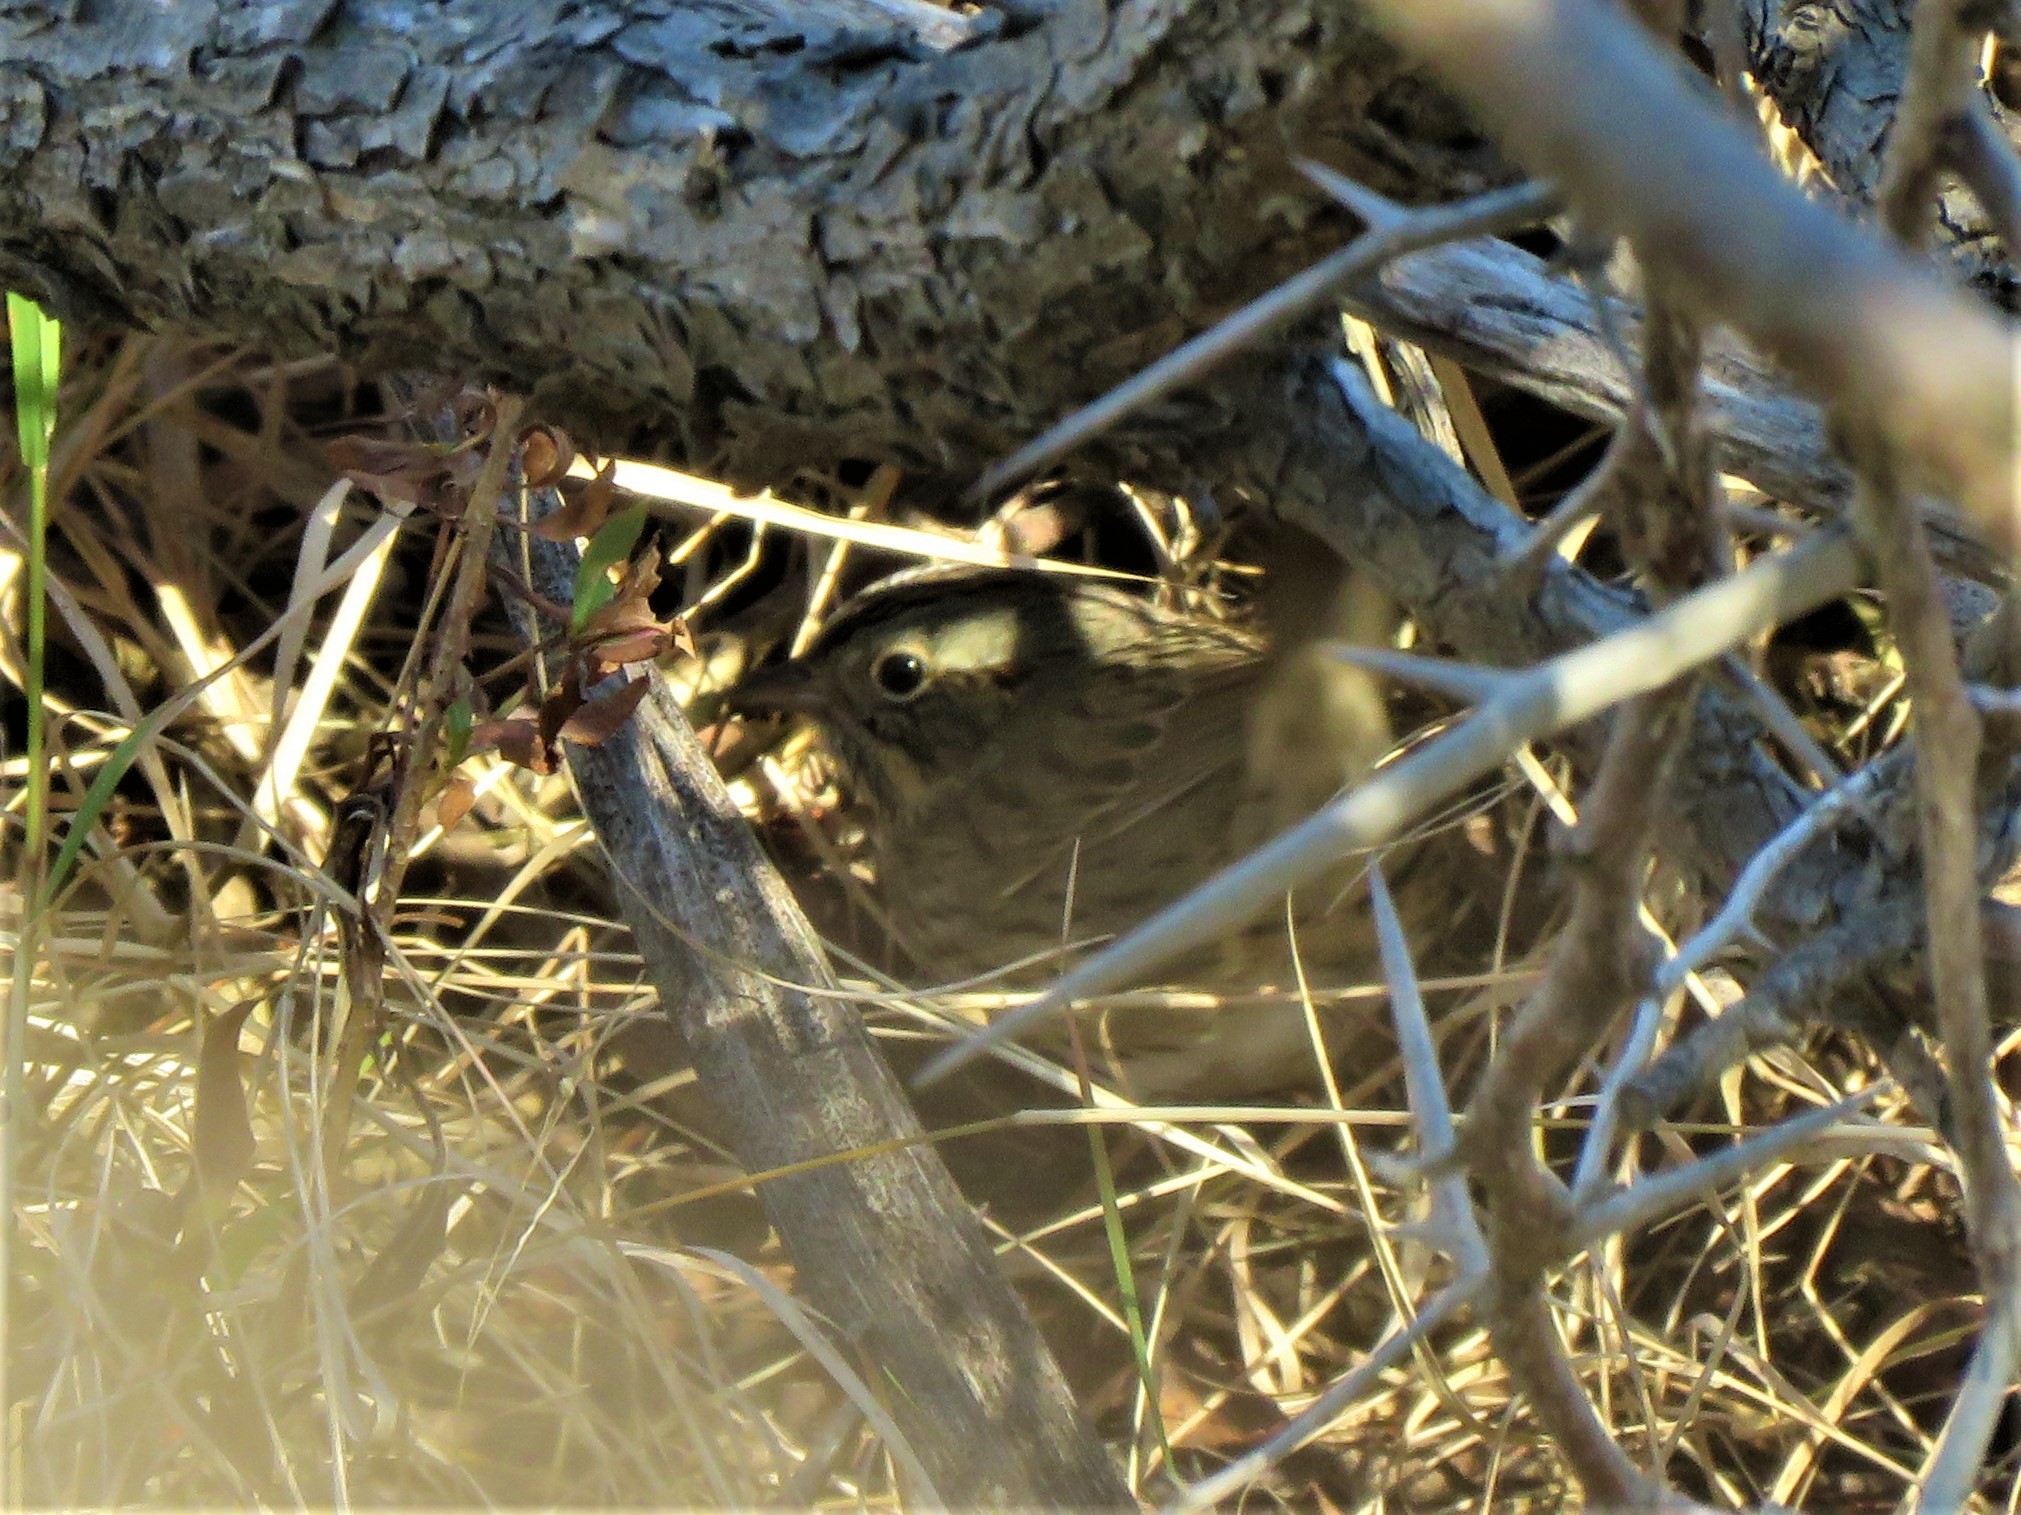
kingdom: Animalia
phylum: Chordata
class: Aves
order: Passeriformes
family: Passerellidae
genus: Melospiza
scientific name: Melospiza lincolnii
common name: Lincoln's sparrow
